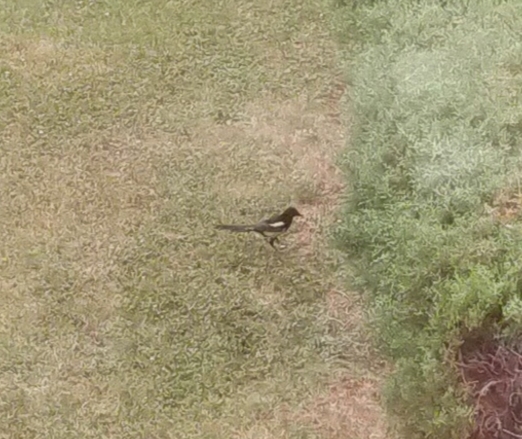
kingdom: Animalia
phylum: Chordata
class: Aves
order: Passeriformes
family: Corvidae
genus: Pica
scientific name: Pica pica
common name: Eurasian magpie
